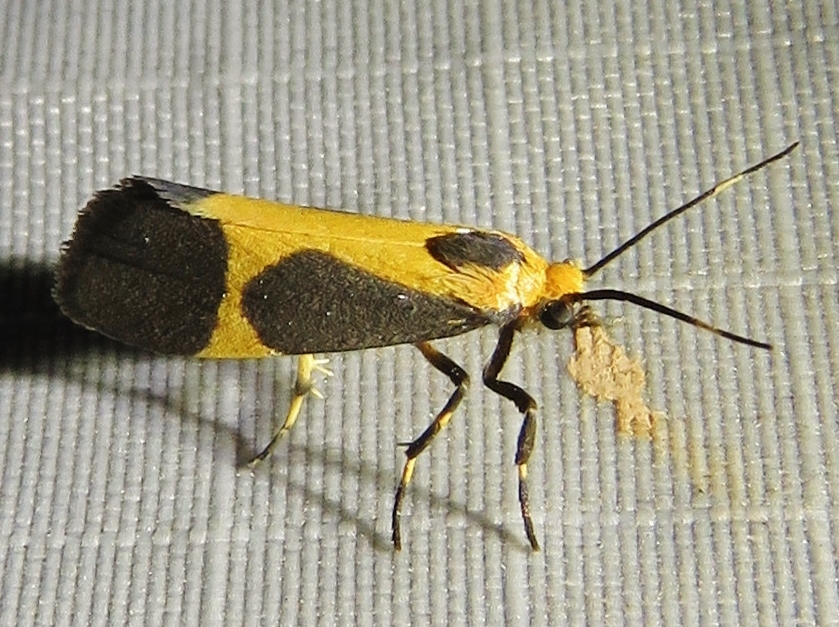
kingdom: Animalia
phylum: Arthropoda
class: Insecta
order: Lepidoptera
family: Erebidae
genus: Cisthene
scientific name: Cisthene kentuckiensis
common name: Kentucky lichen moth
